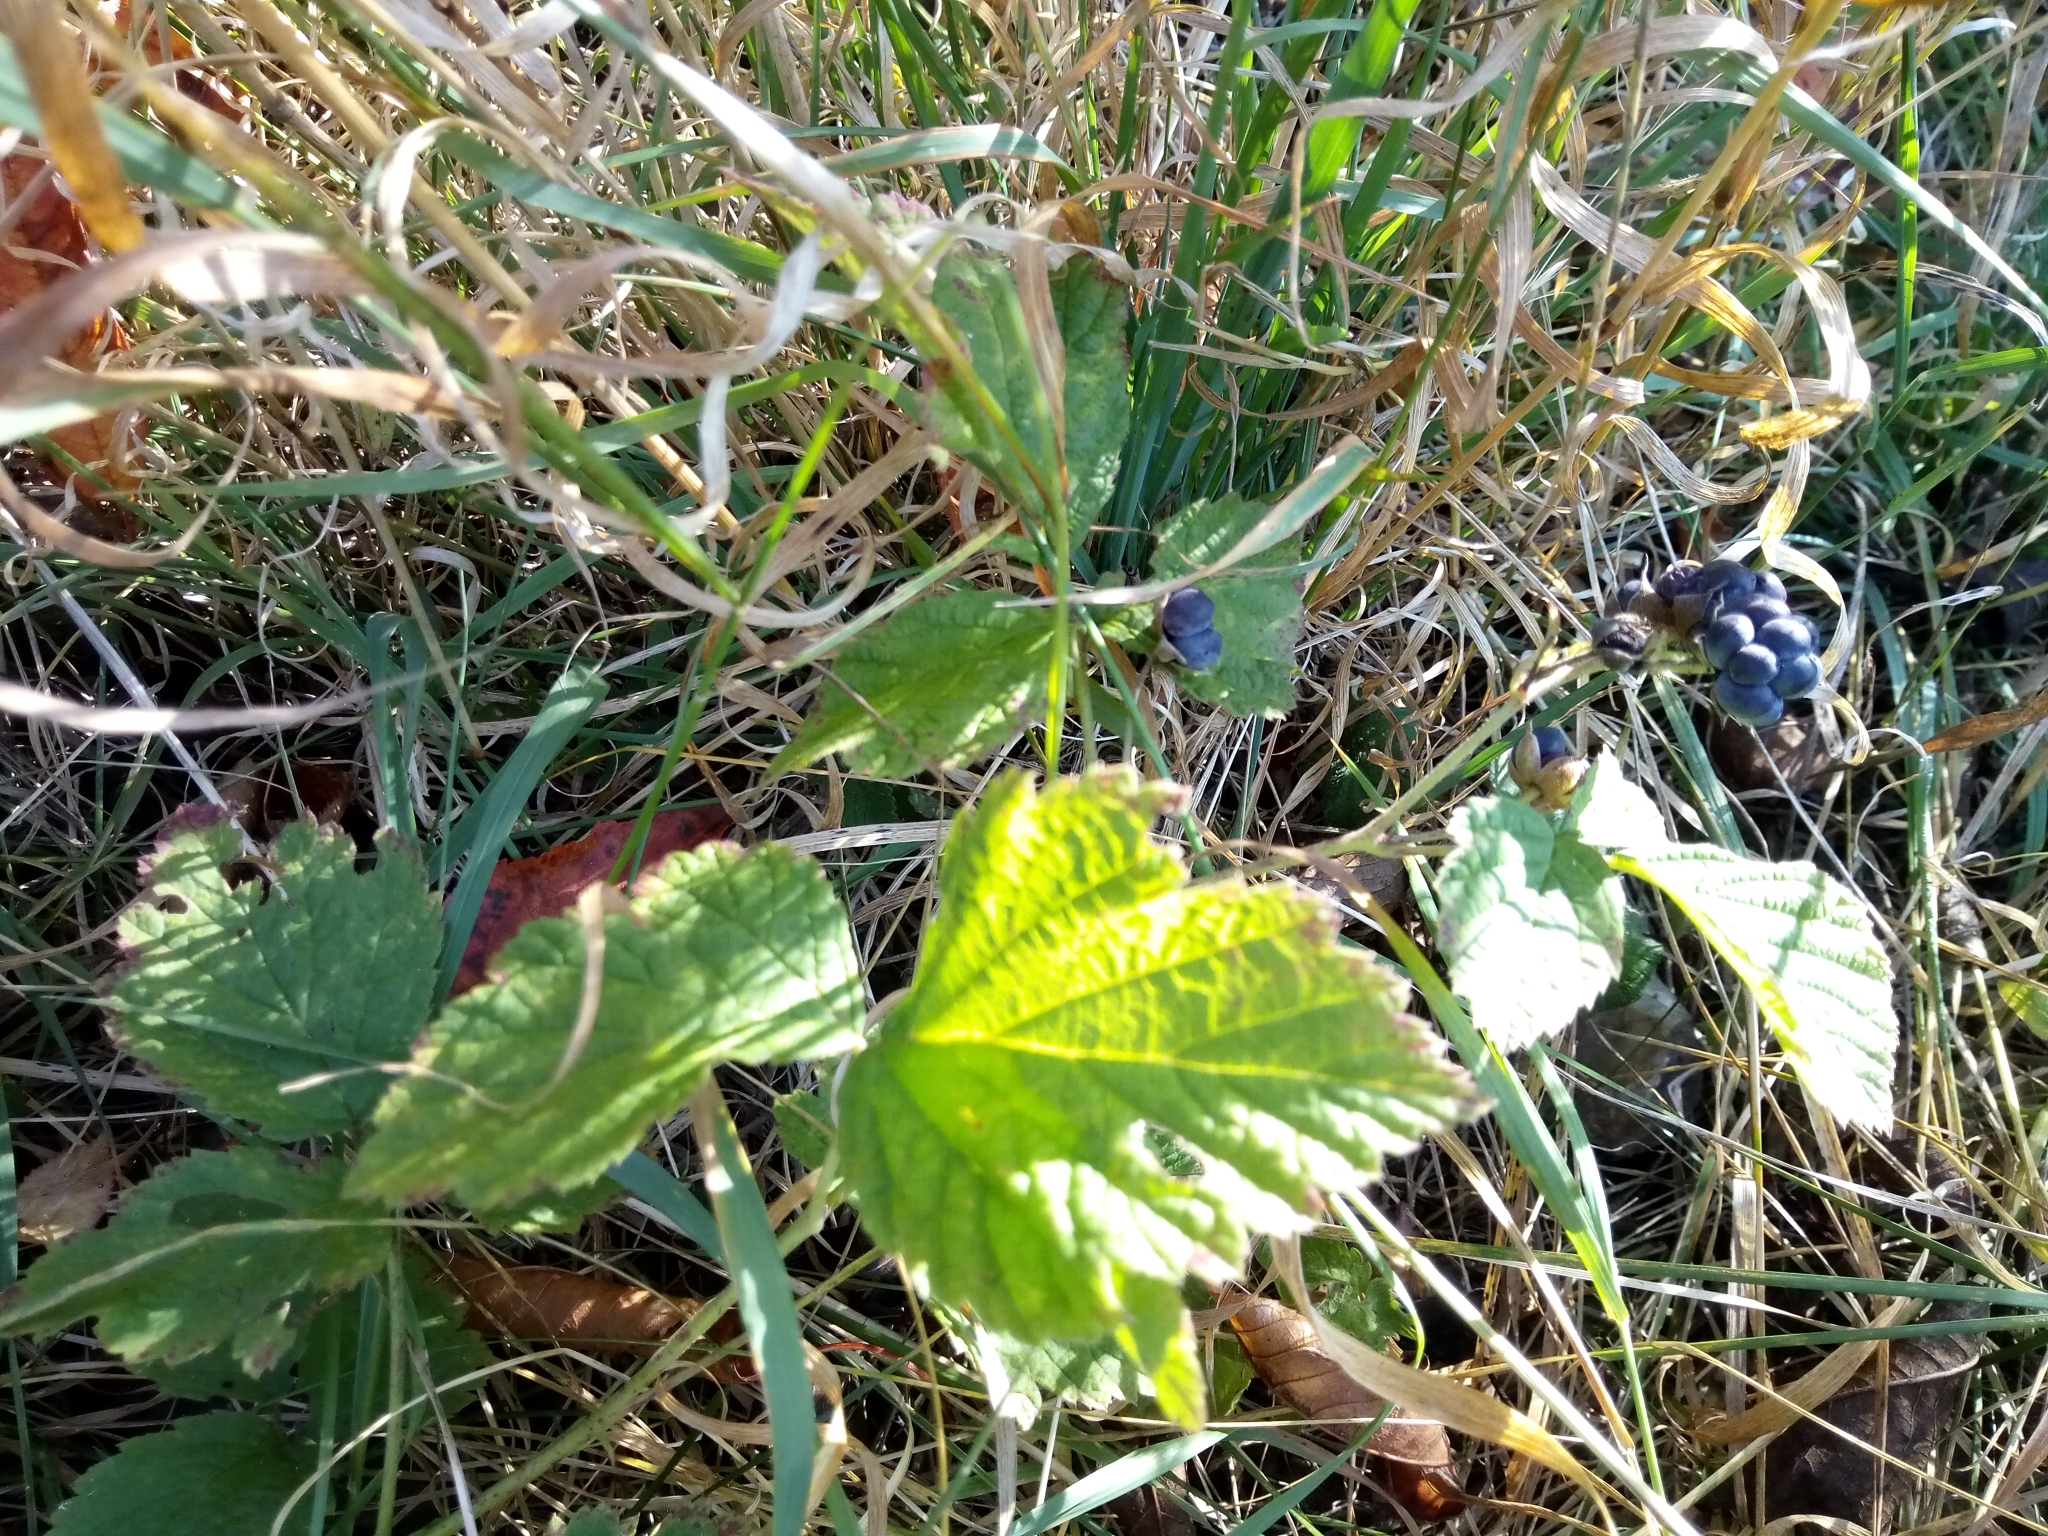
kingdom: Plantae
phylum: Tracheophyta
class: Magnoliopsida
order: Rosales
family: Rosaceae
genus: Rubus
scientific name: Rubus caesius
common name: Dewberry
